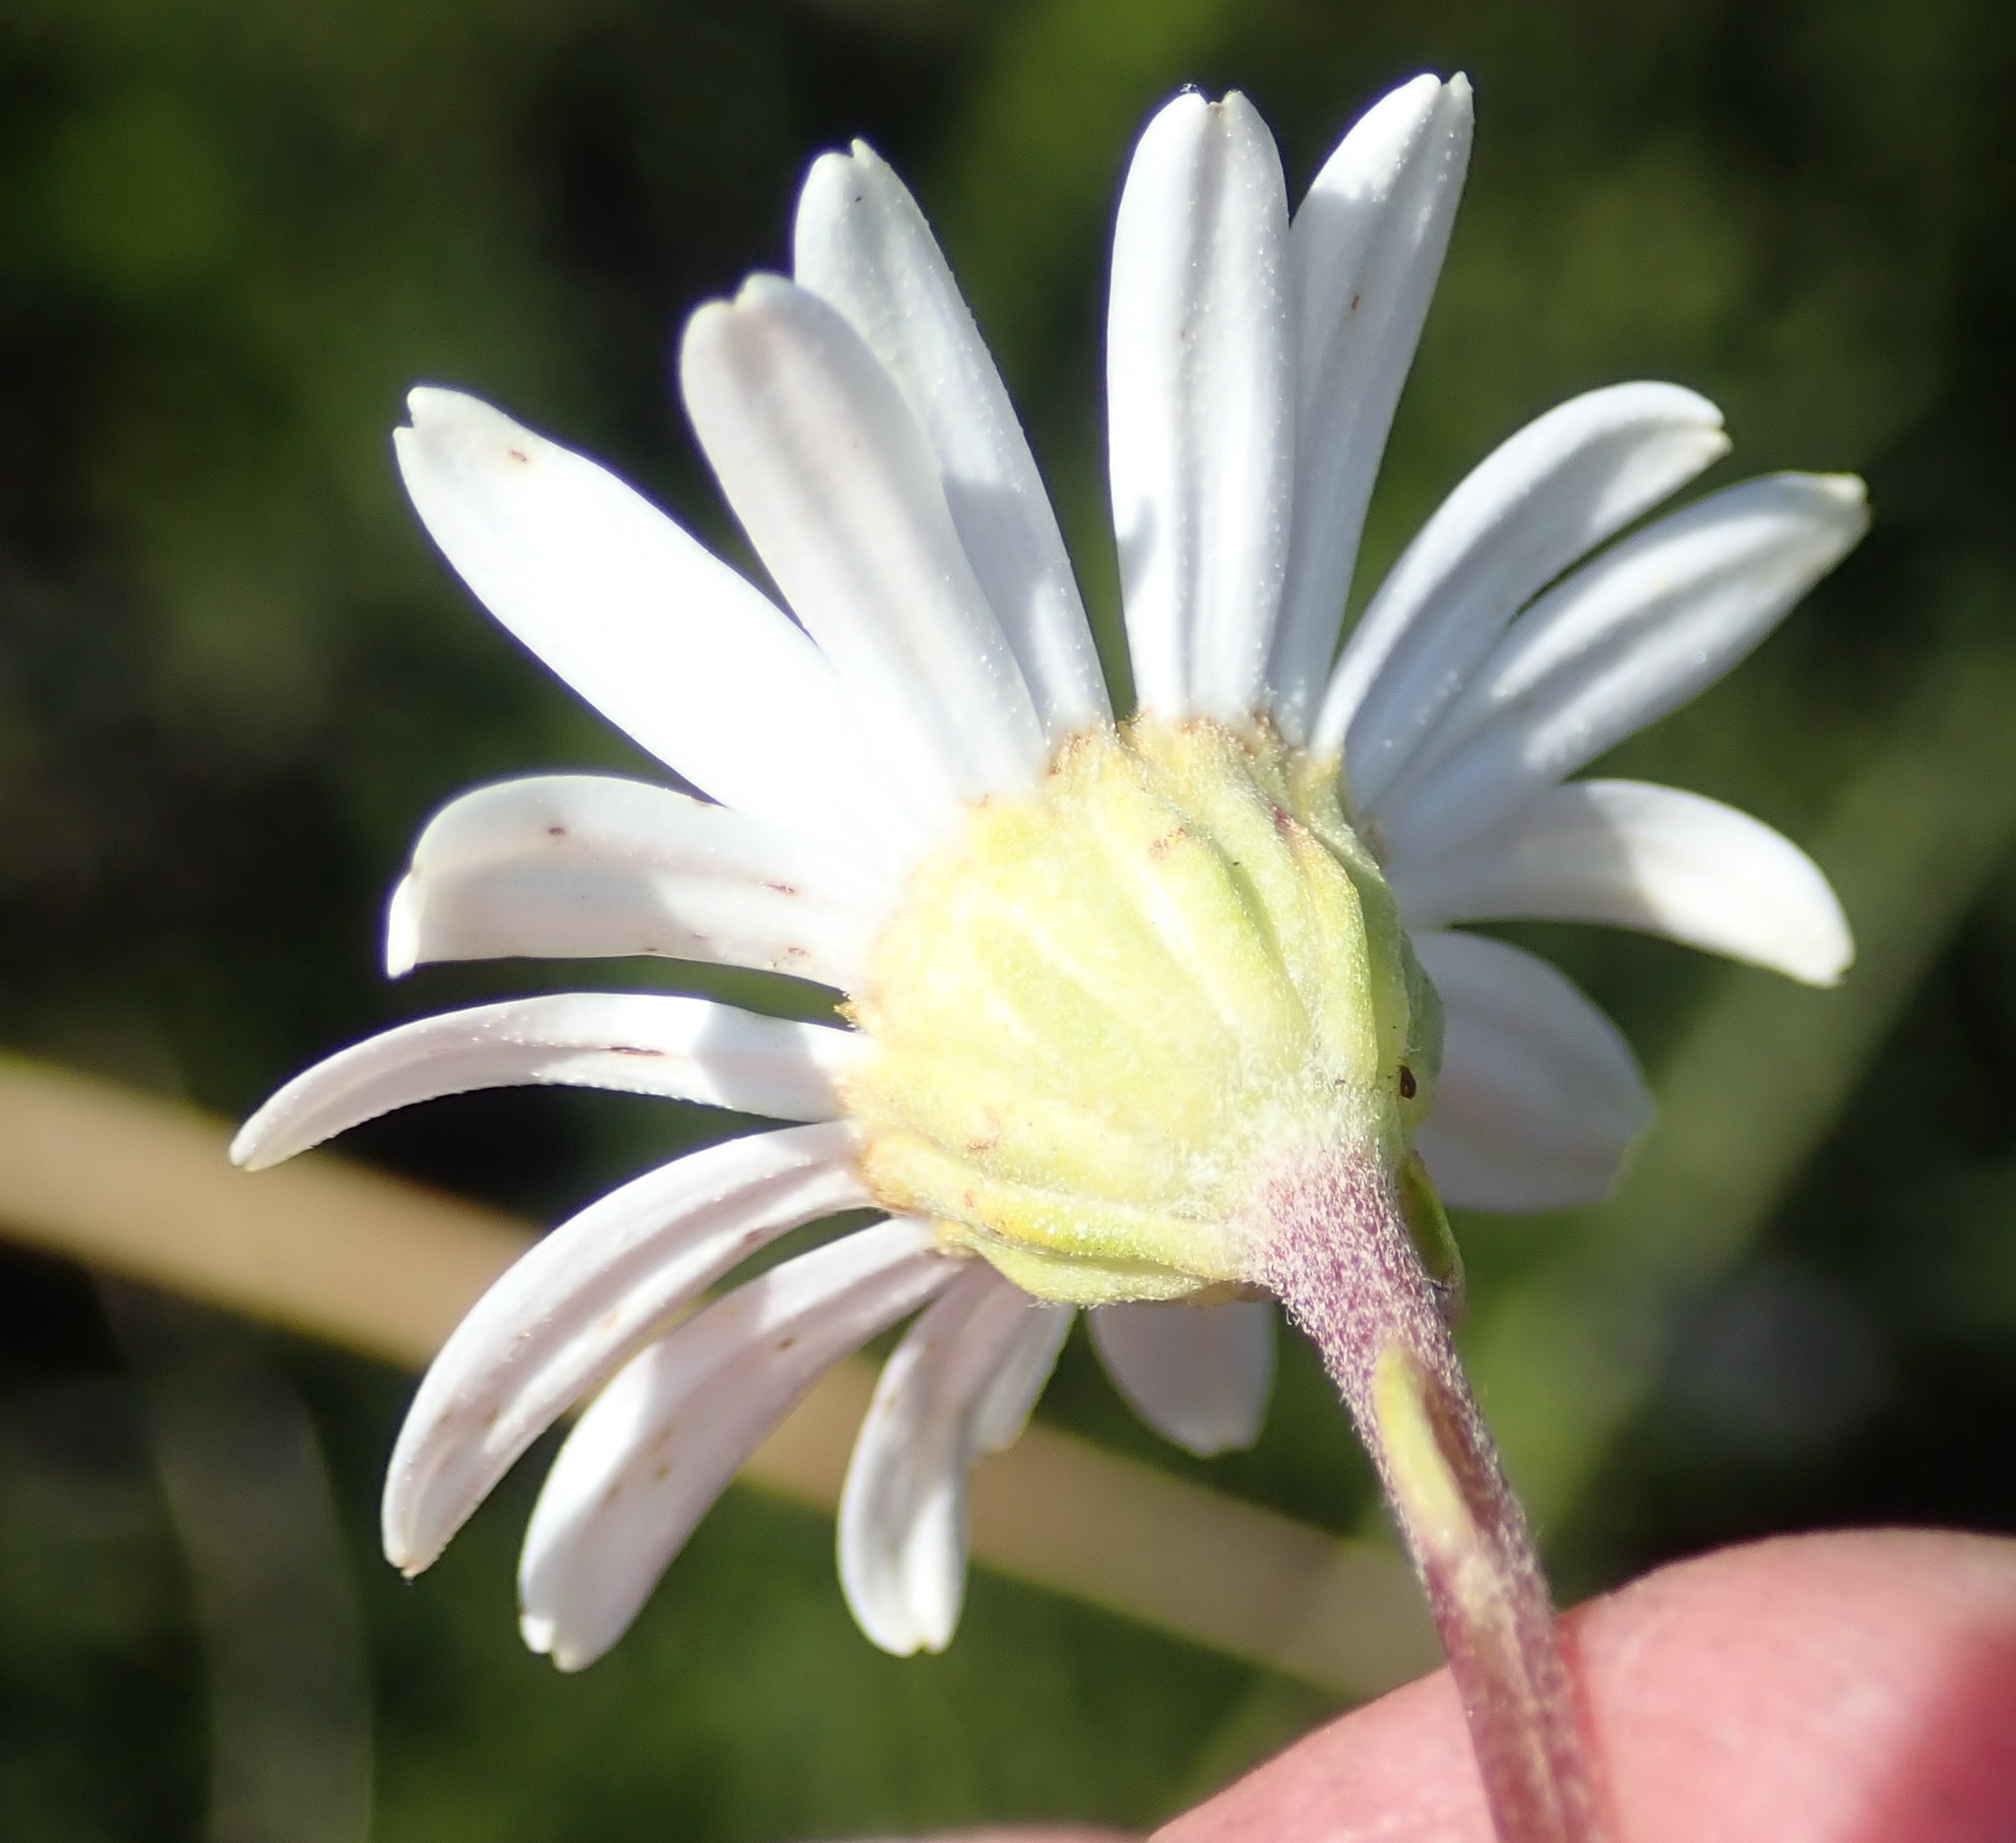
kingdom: Plantae
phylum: Tracheophyta
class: Magnoliopsida
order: Asterales
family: Asteraceae
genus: Osmitopsis
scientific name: Osmitopsis osmitoides
